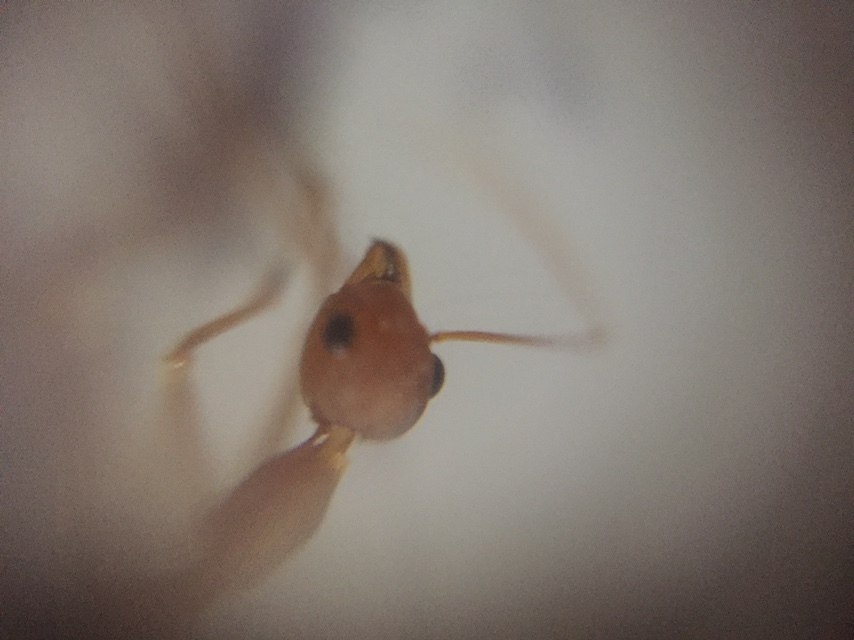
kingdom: Animalia
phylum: Arthropoda
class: Insecta
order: Hymenoptera
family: Formicidae
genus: Oecophylla
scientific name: Oecophylla smaragdina
